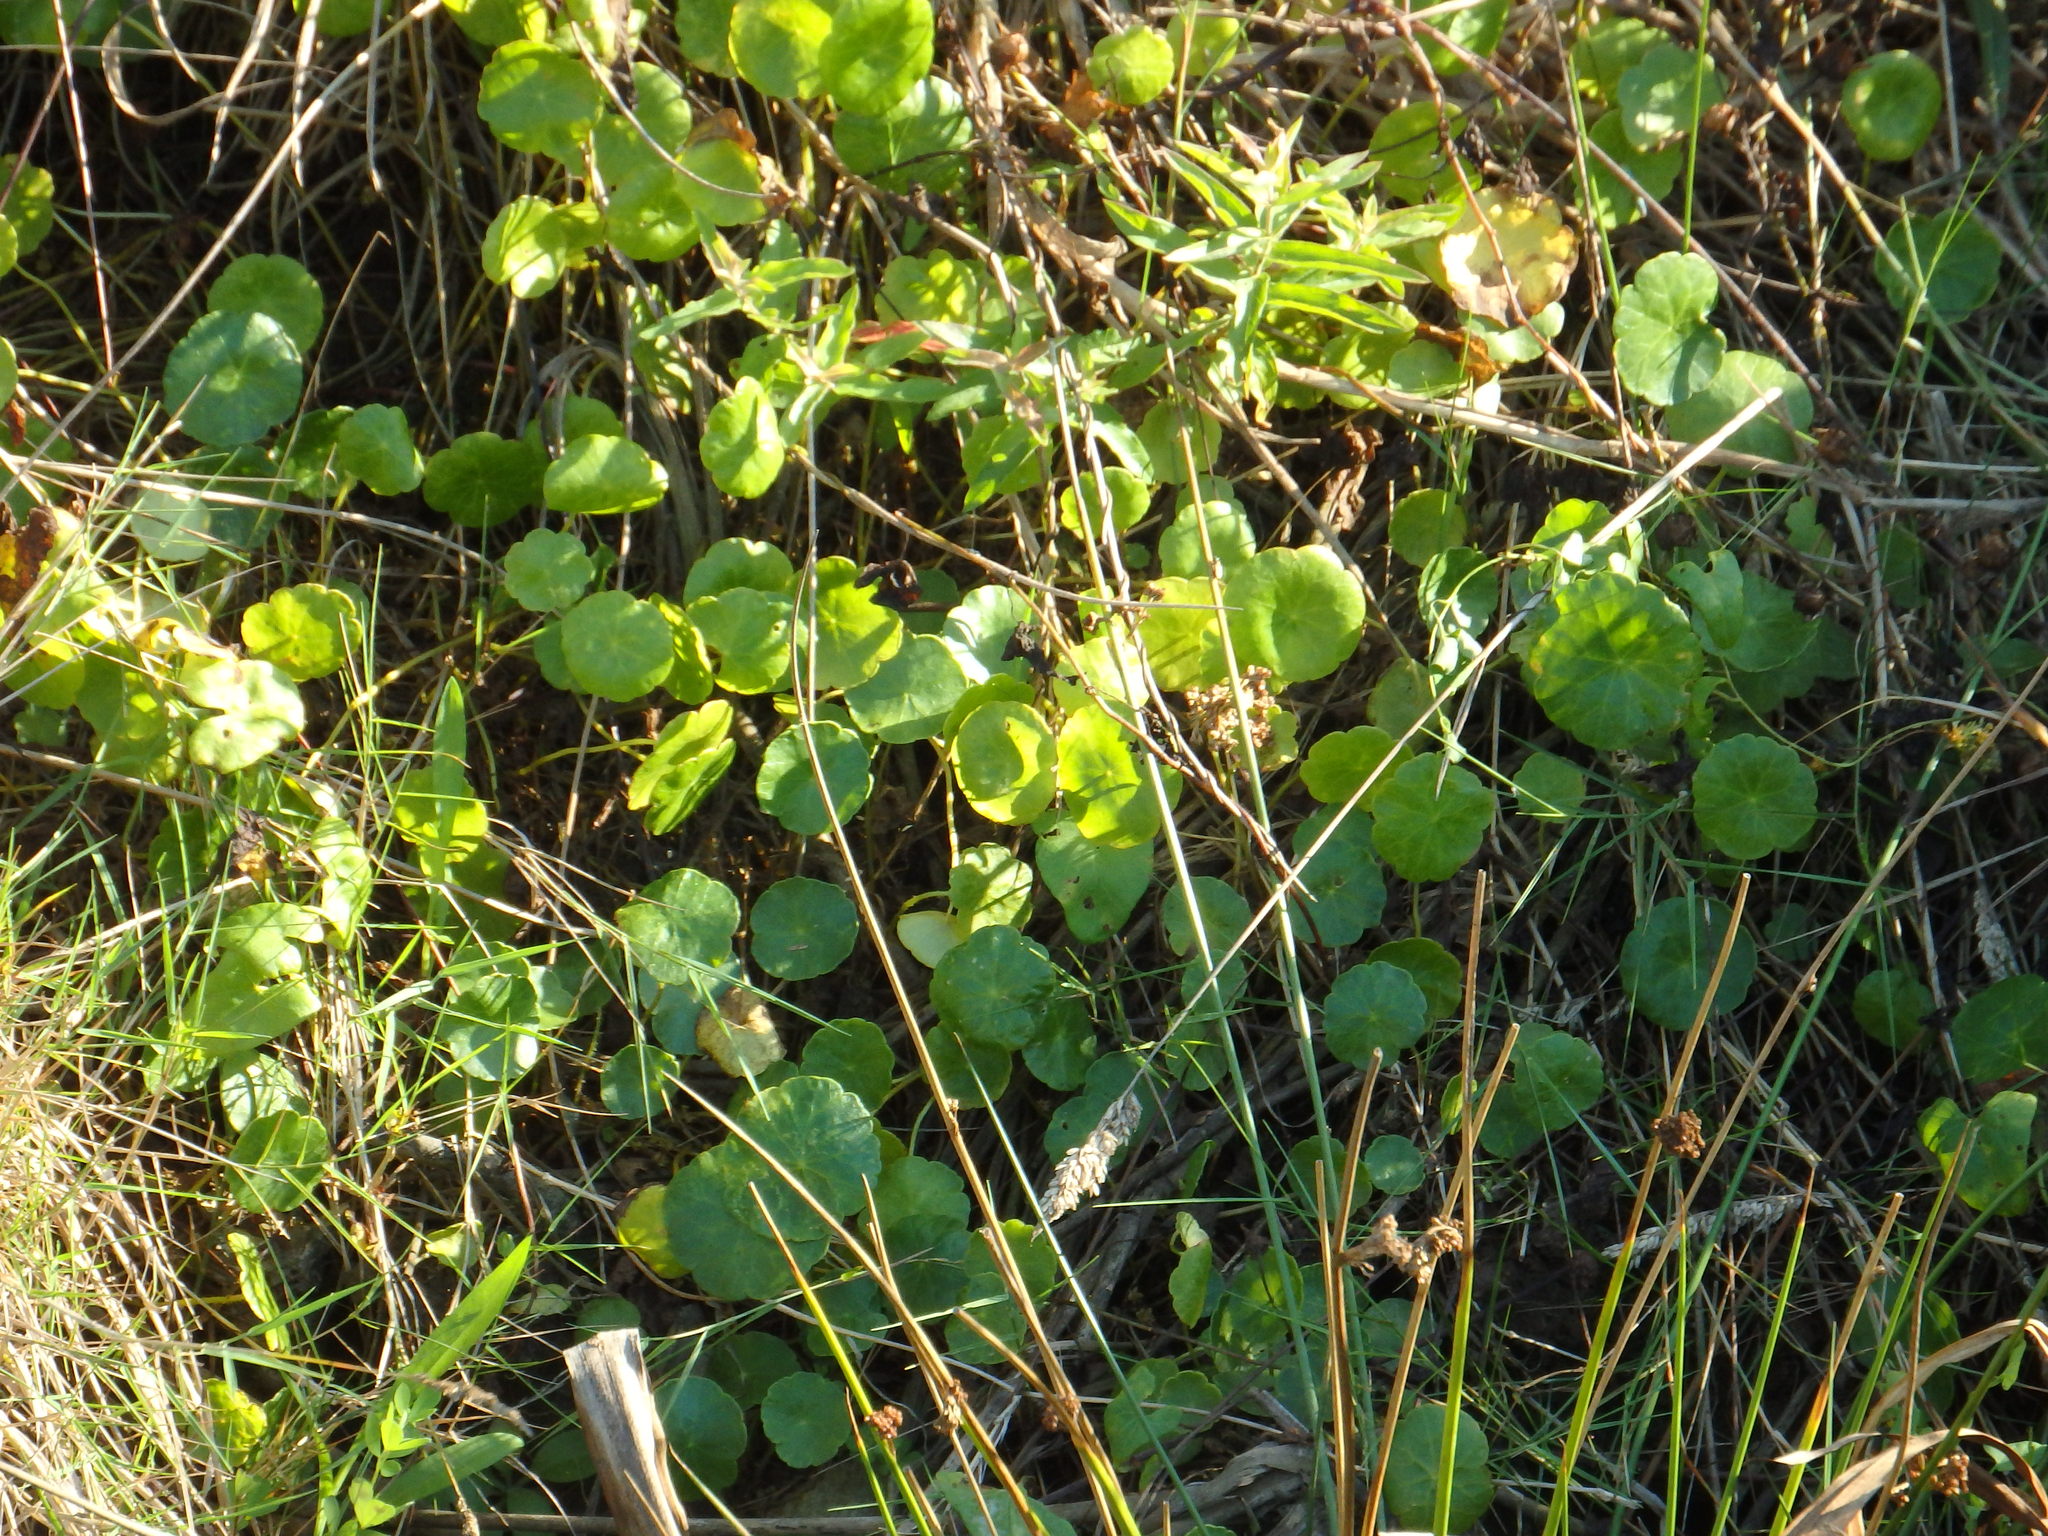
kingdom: Plantae
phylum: Tracheophyta
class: Magnoliopsida
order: Apiales
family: Araliaceae
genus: Hydrocotyle
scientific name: Hydrocotyle vulgaris
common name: Marsh pennywort
